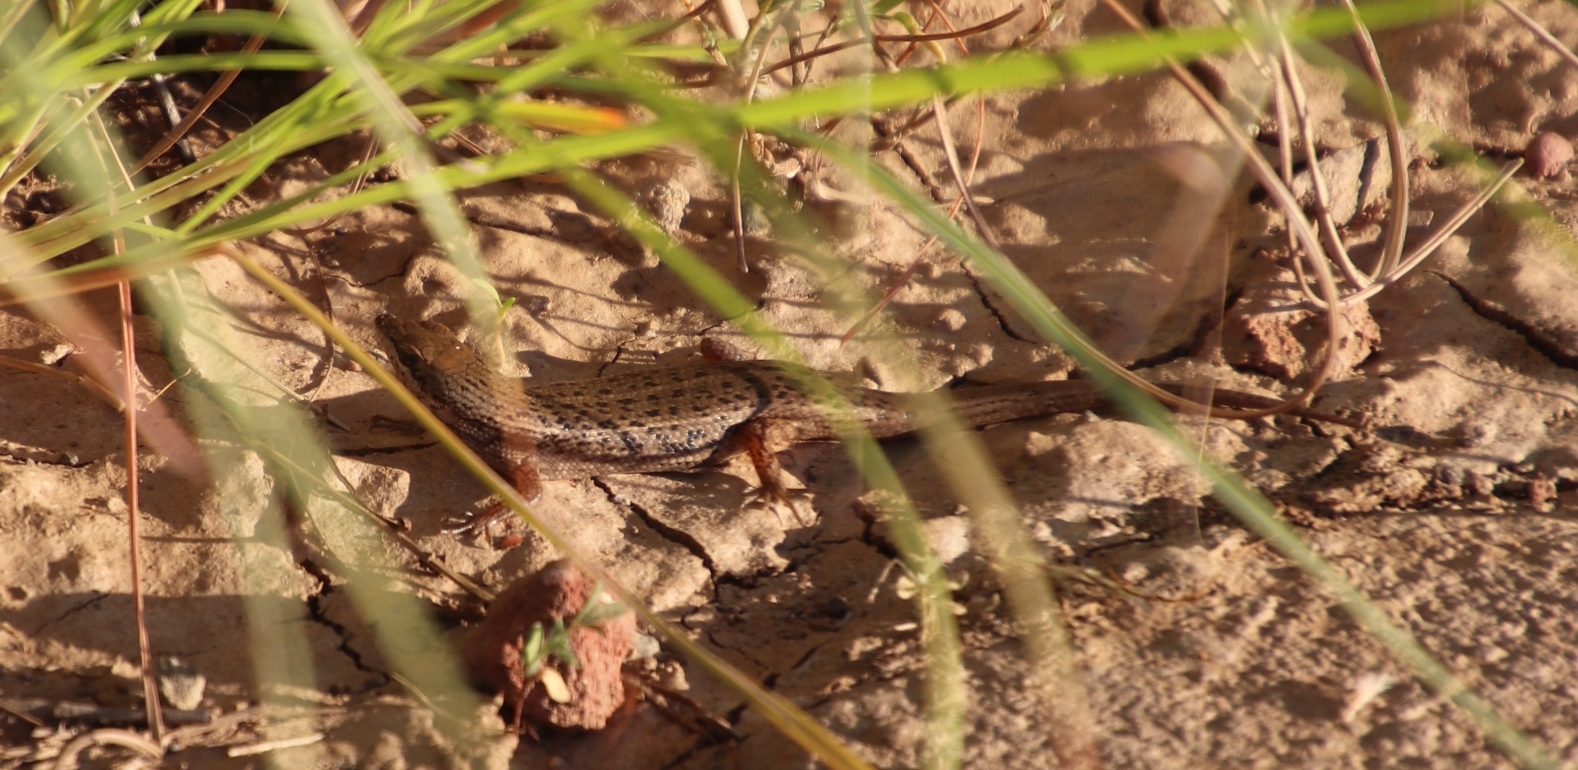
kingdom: Animalia
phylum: Chordata
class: Squamata
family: Scincidae
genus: Trachylepis
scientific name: Trachylepis variegata
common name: Variegated skink
